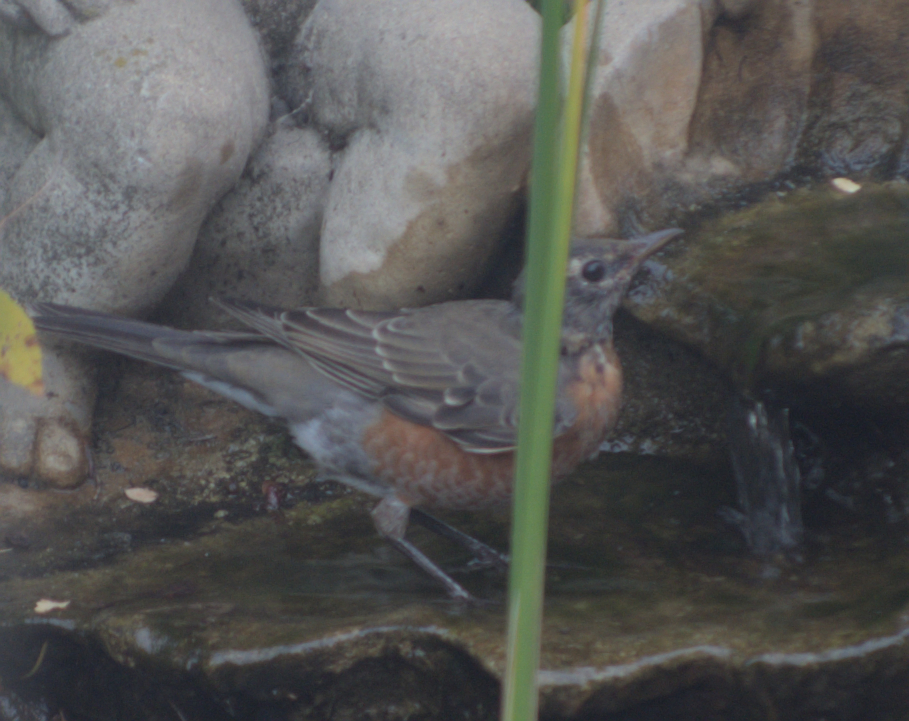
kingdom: Animalia
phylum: Chordata
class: Aves
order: Passeriformes
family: Turdidae
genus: Turdus
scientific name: Turdus migratorius
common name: American robin
